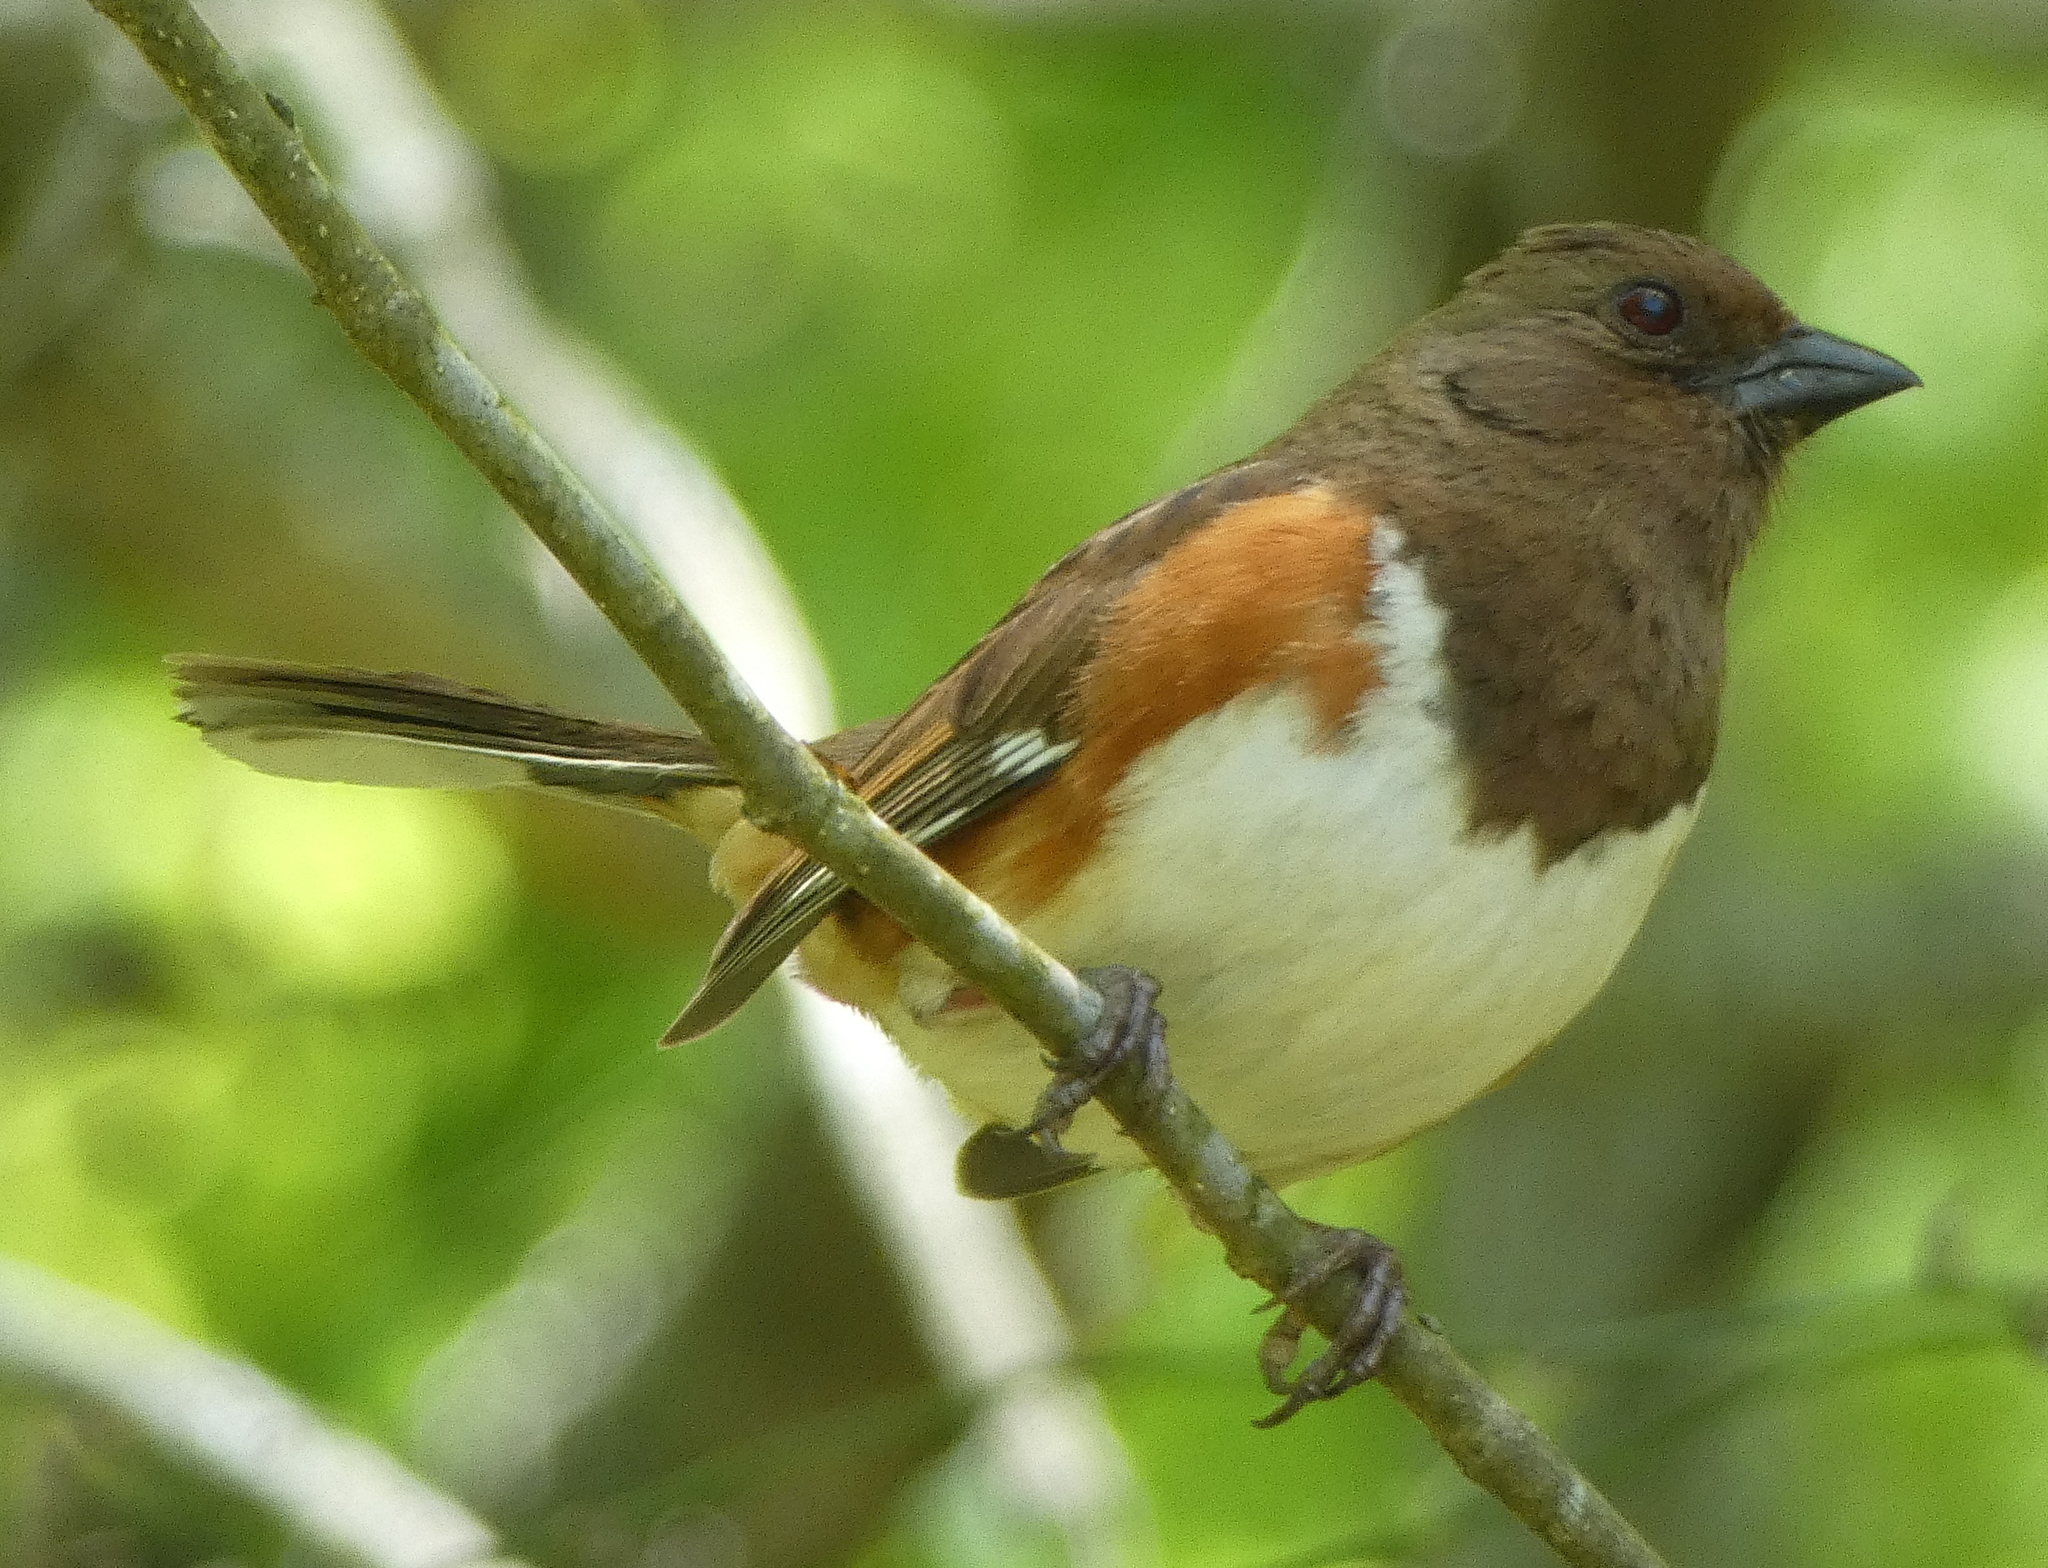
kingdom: Animalia
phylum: Chordata
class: Aves
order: Passeriformes
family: Passerellidae
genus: Pipilo
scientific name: Pipilo erythrophthalmus
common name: Eastern towhee
